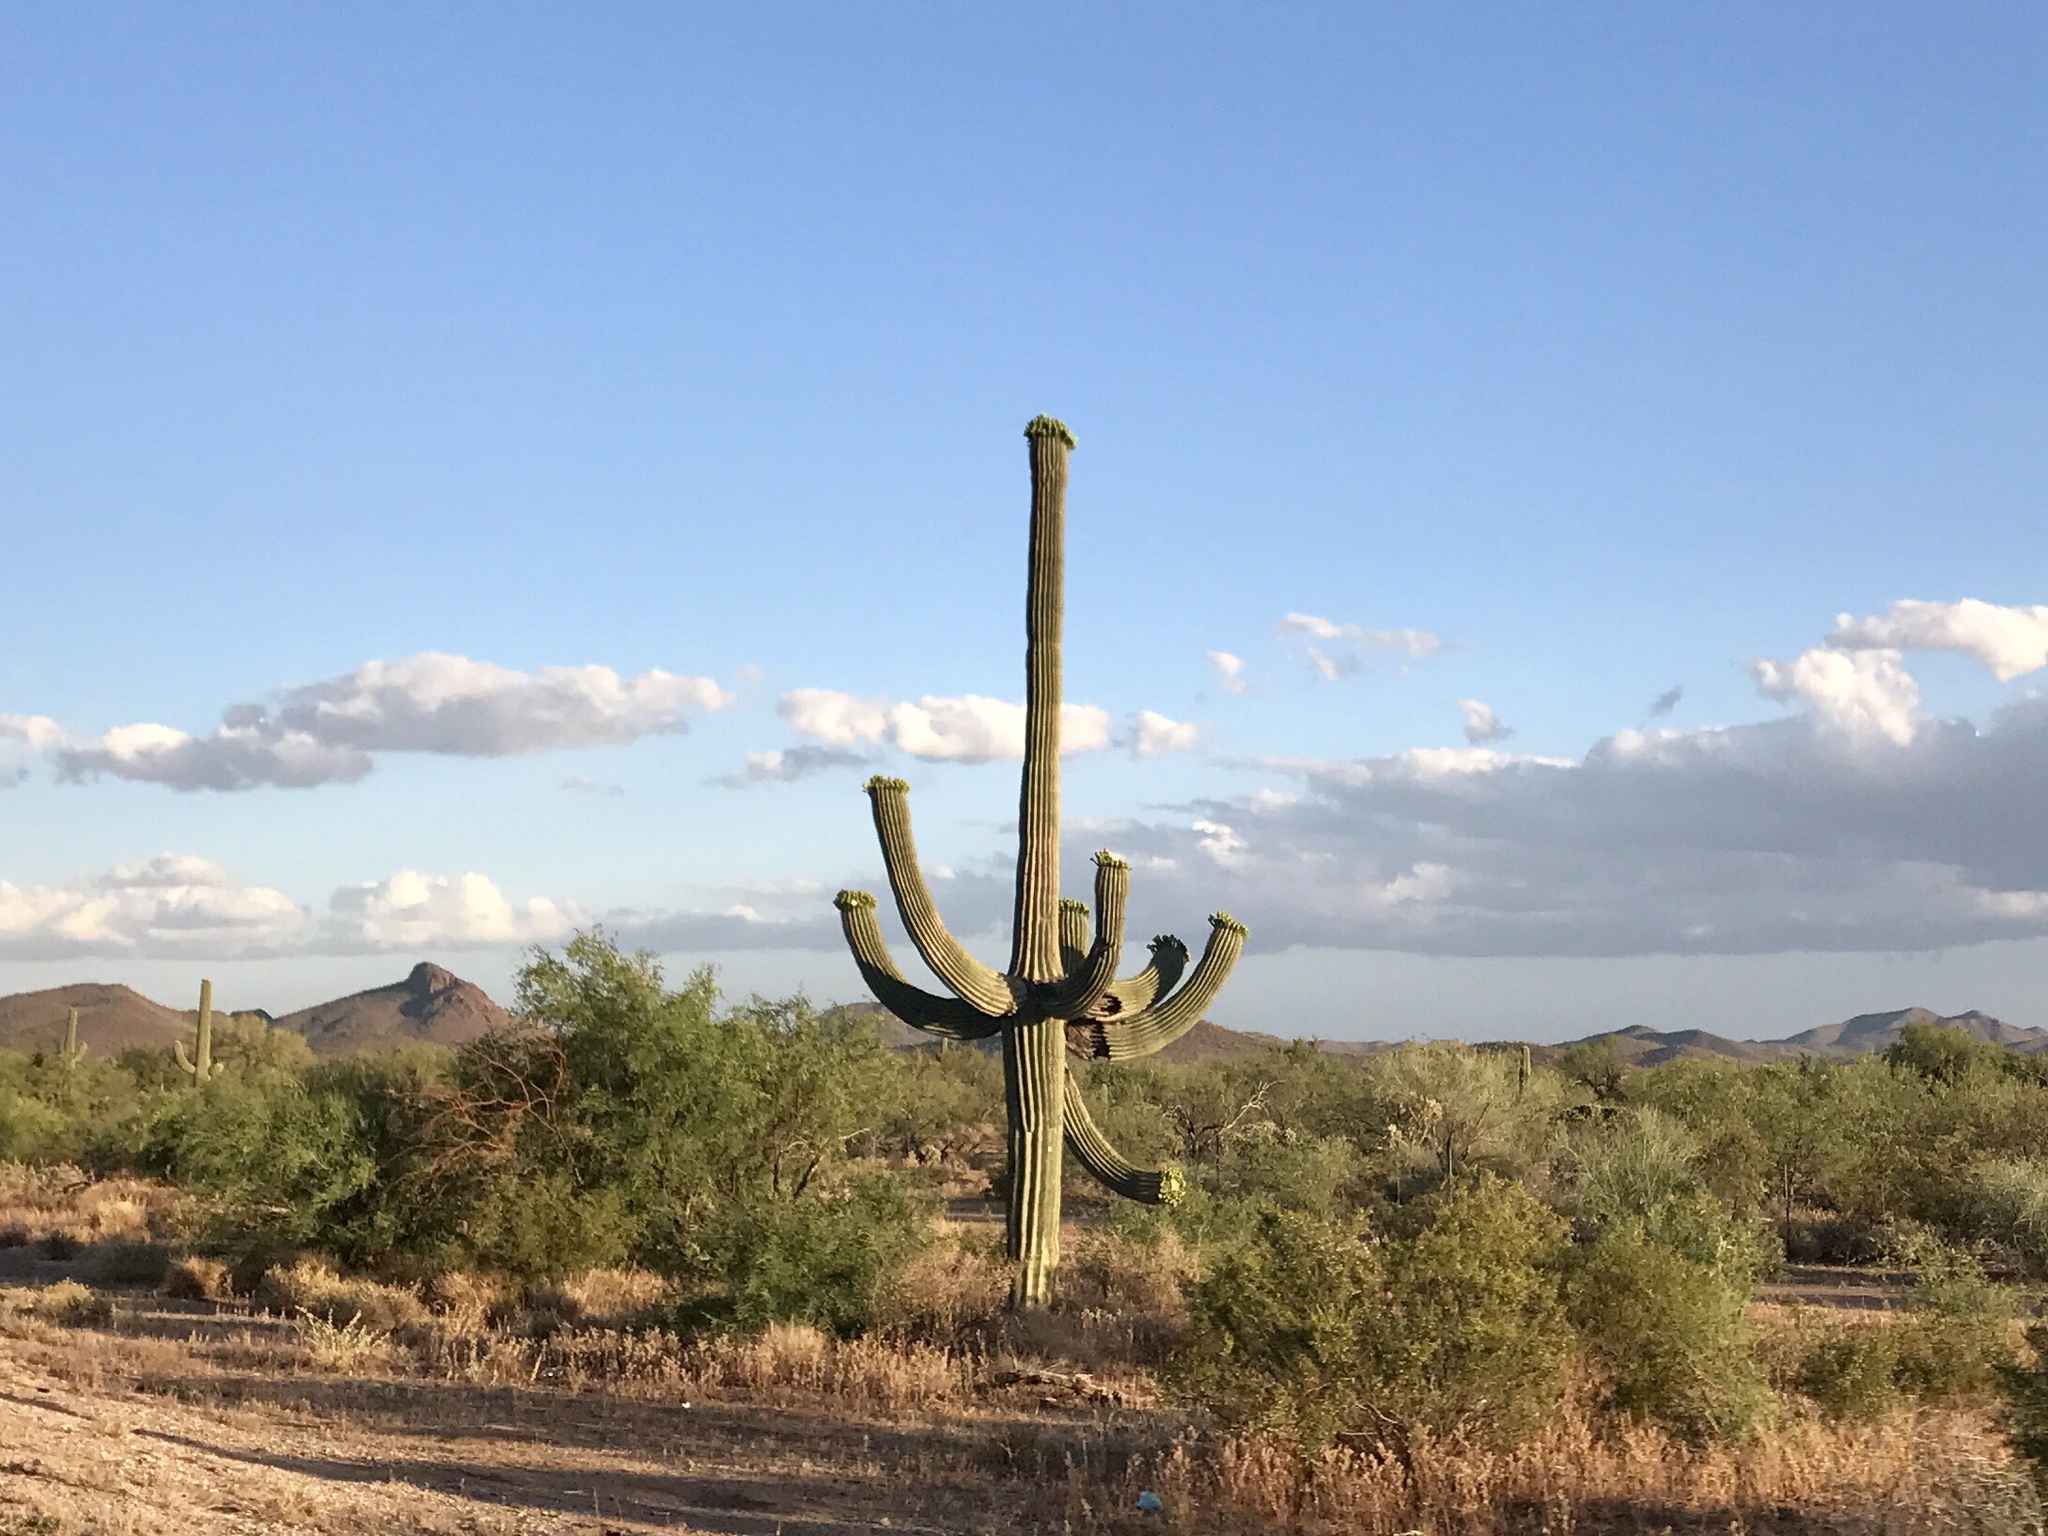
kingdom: Plantae
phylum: Tracheophyta
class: Magnoliopsida
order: Caryophyllales
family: Cactaceae
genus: Carnegiea
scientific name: Carnegiea gigantea
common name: Saguaro
